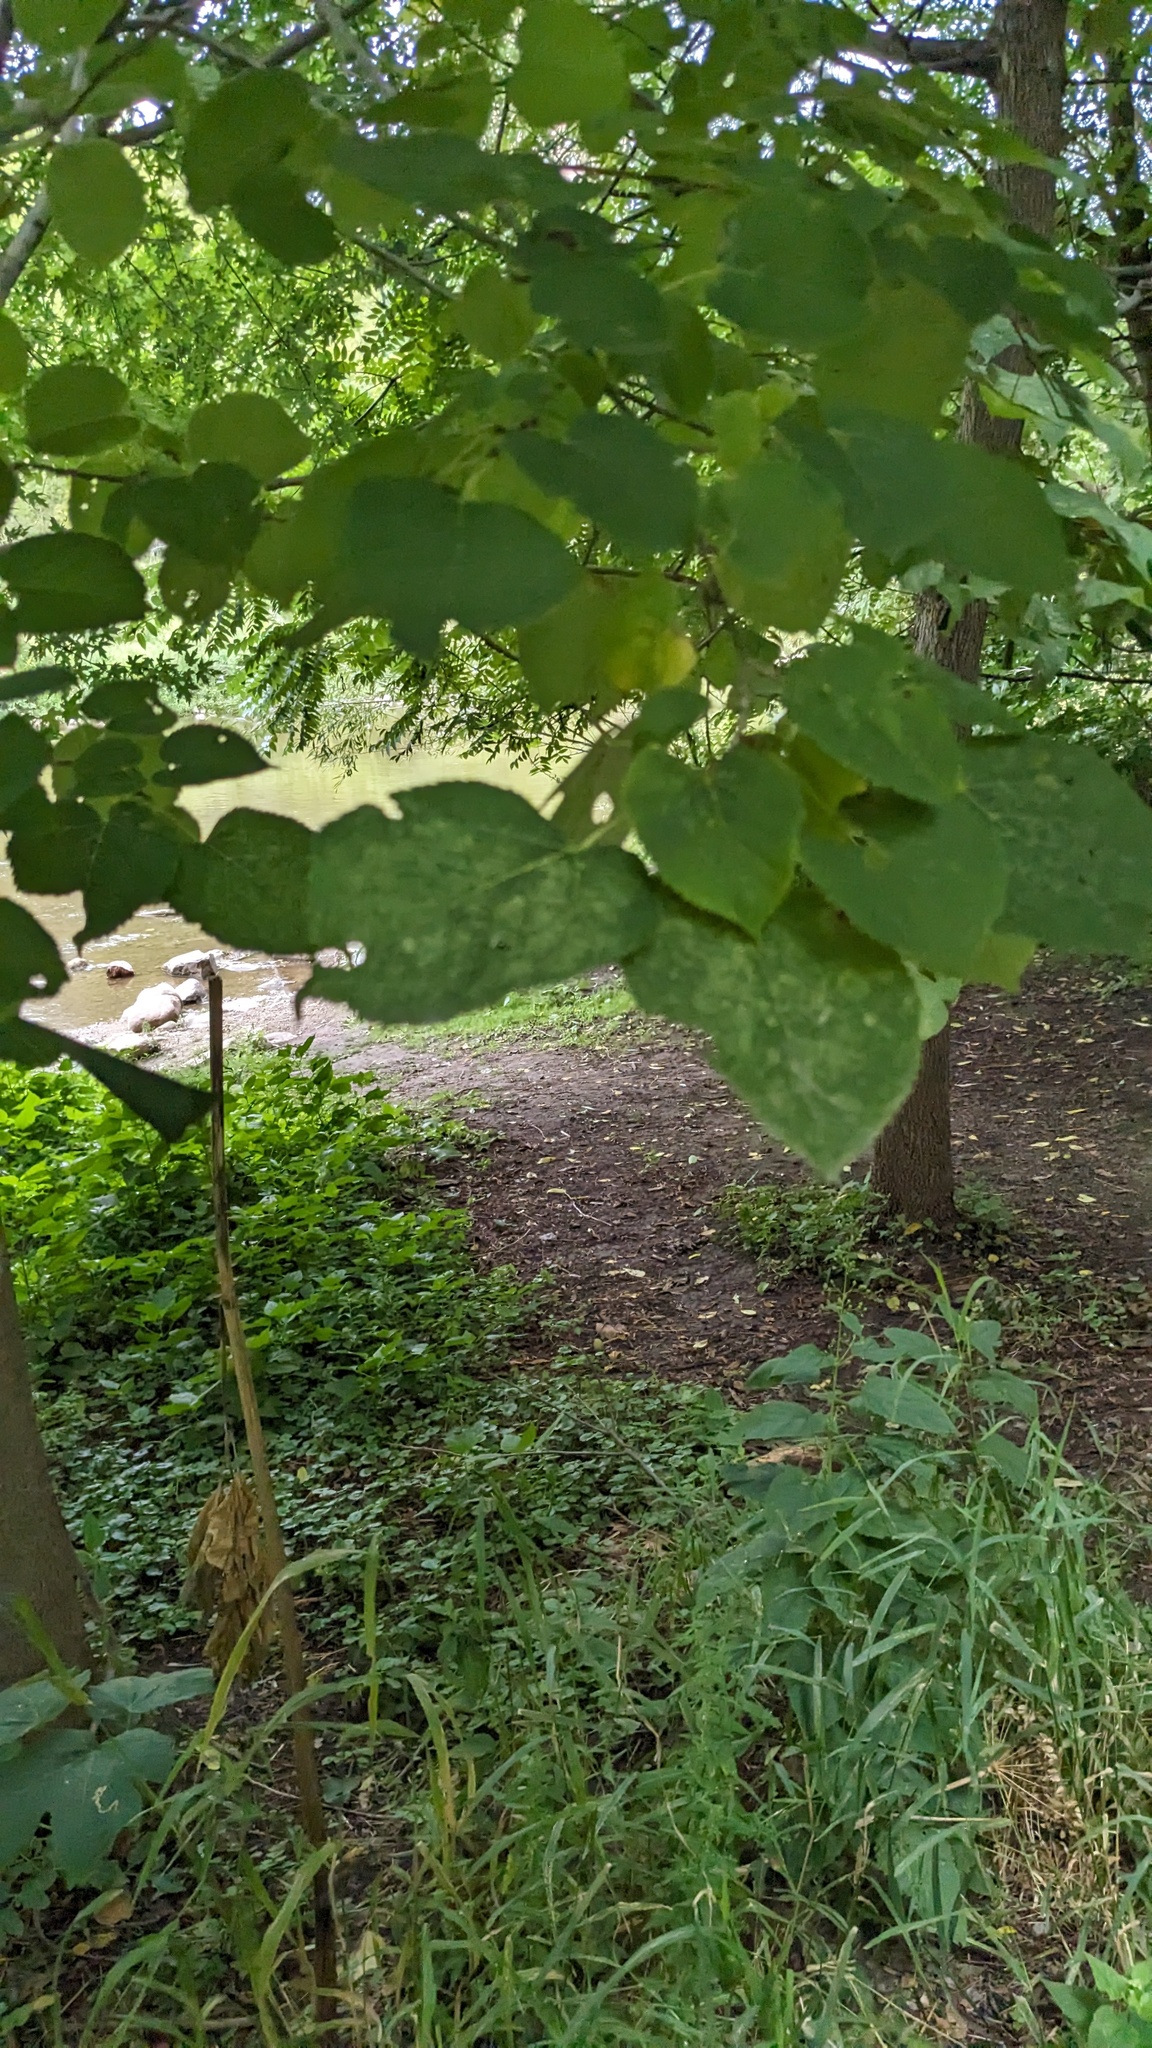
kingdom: Plantae
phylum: Tracheophyta
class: Magnoliopsida
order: Malvales
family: Malvaceae
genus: Tilia
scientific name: Tilia americana
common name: Basswood
